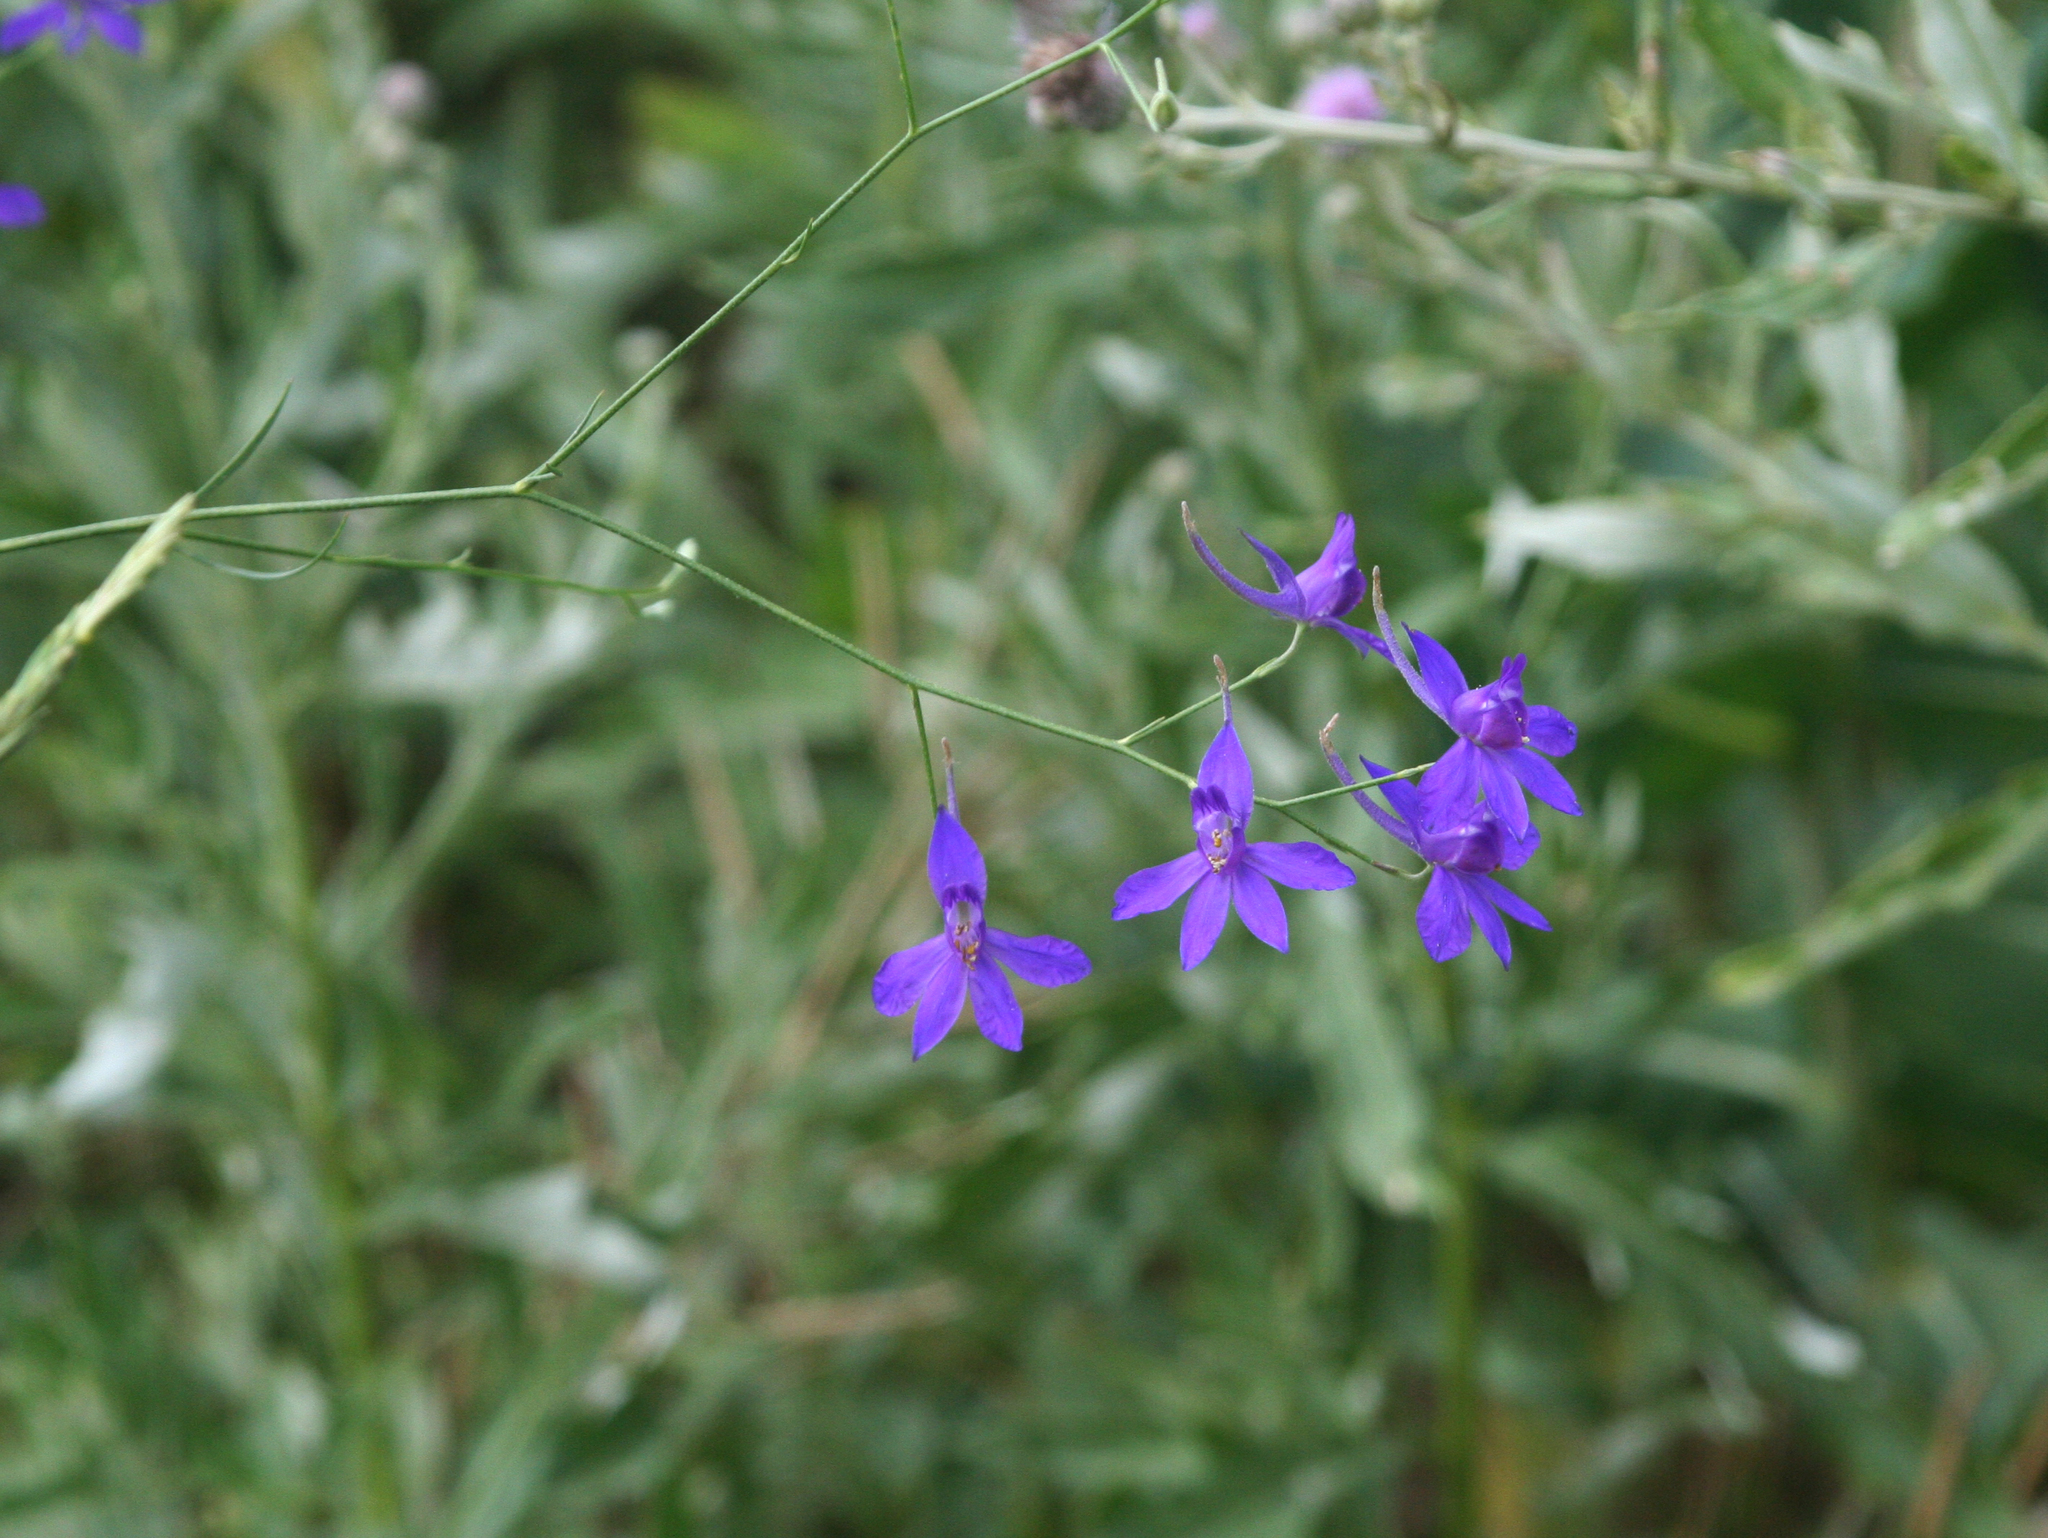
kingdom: Plantae
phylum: Tracheophyta
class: Magnoliopsida
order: Ranunculales
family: Ranunculaceae
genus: Delphinium
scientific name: Delphinium consolida
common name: Branching larkspur
